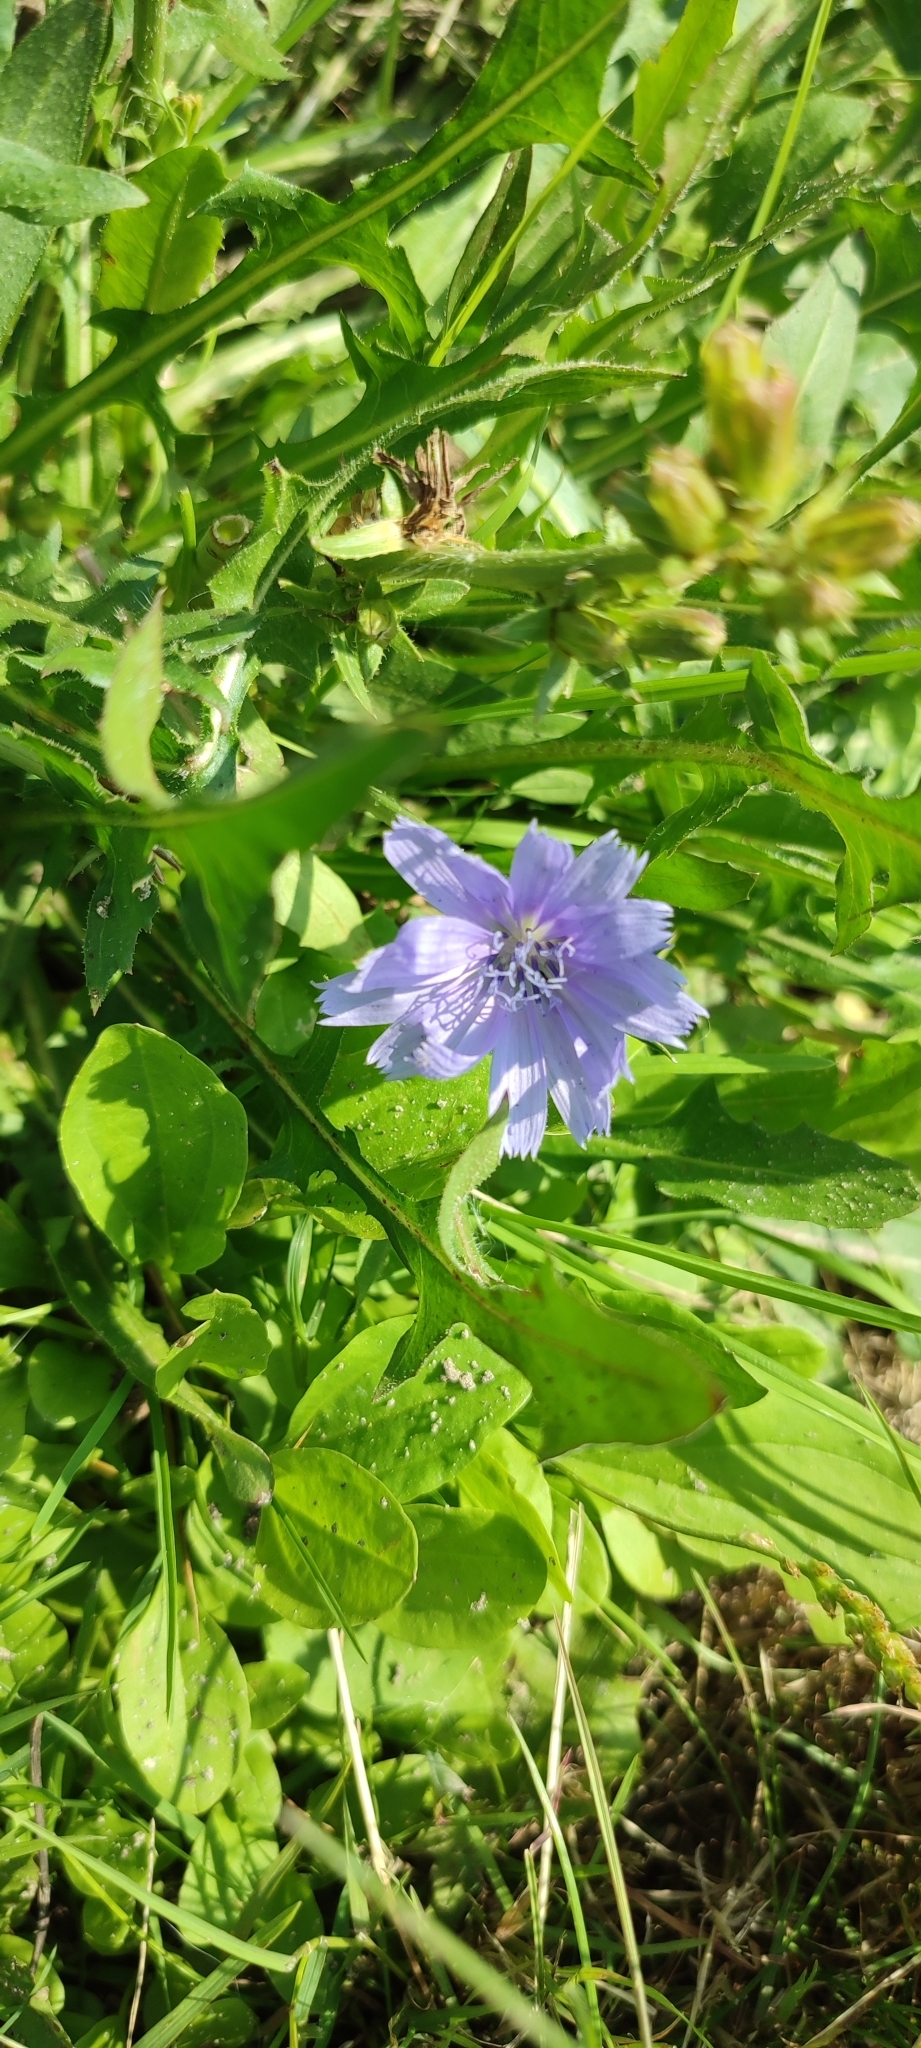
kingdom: Plantae
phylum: Tracheophyta
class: Magnoliopsida
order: Asterales
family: Asteraceae
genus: Cichorium
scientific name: Cichorium intybus
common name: Chicory
